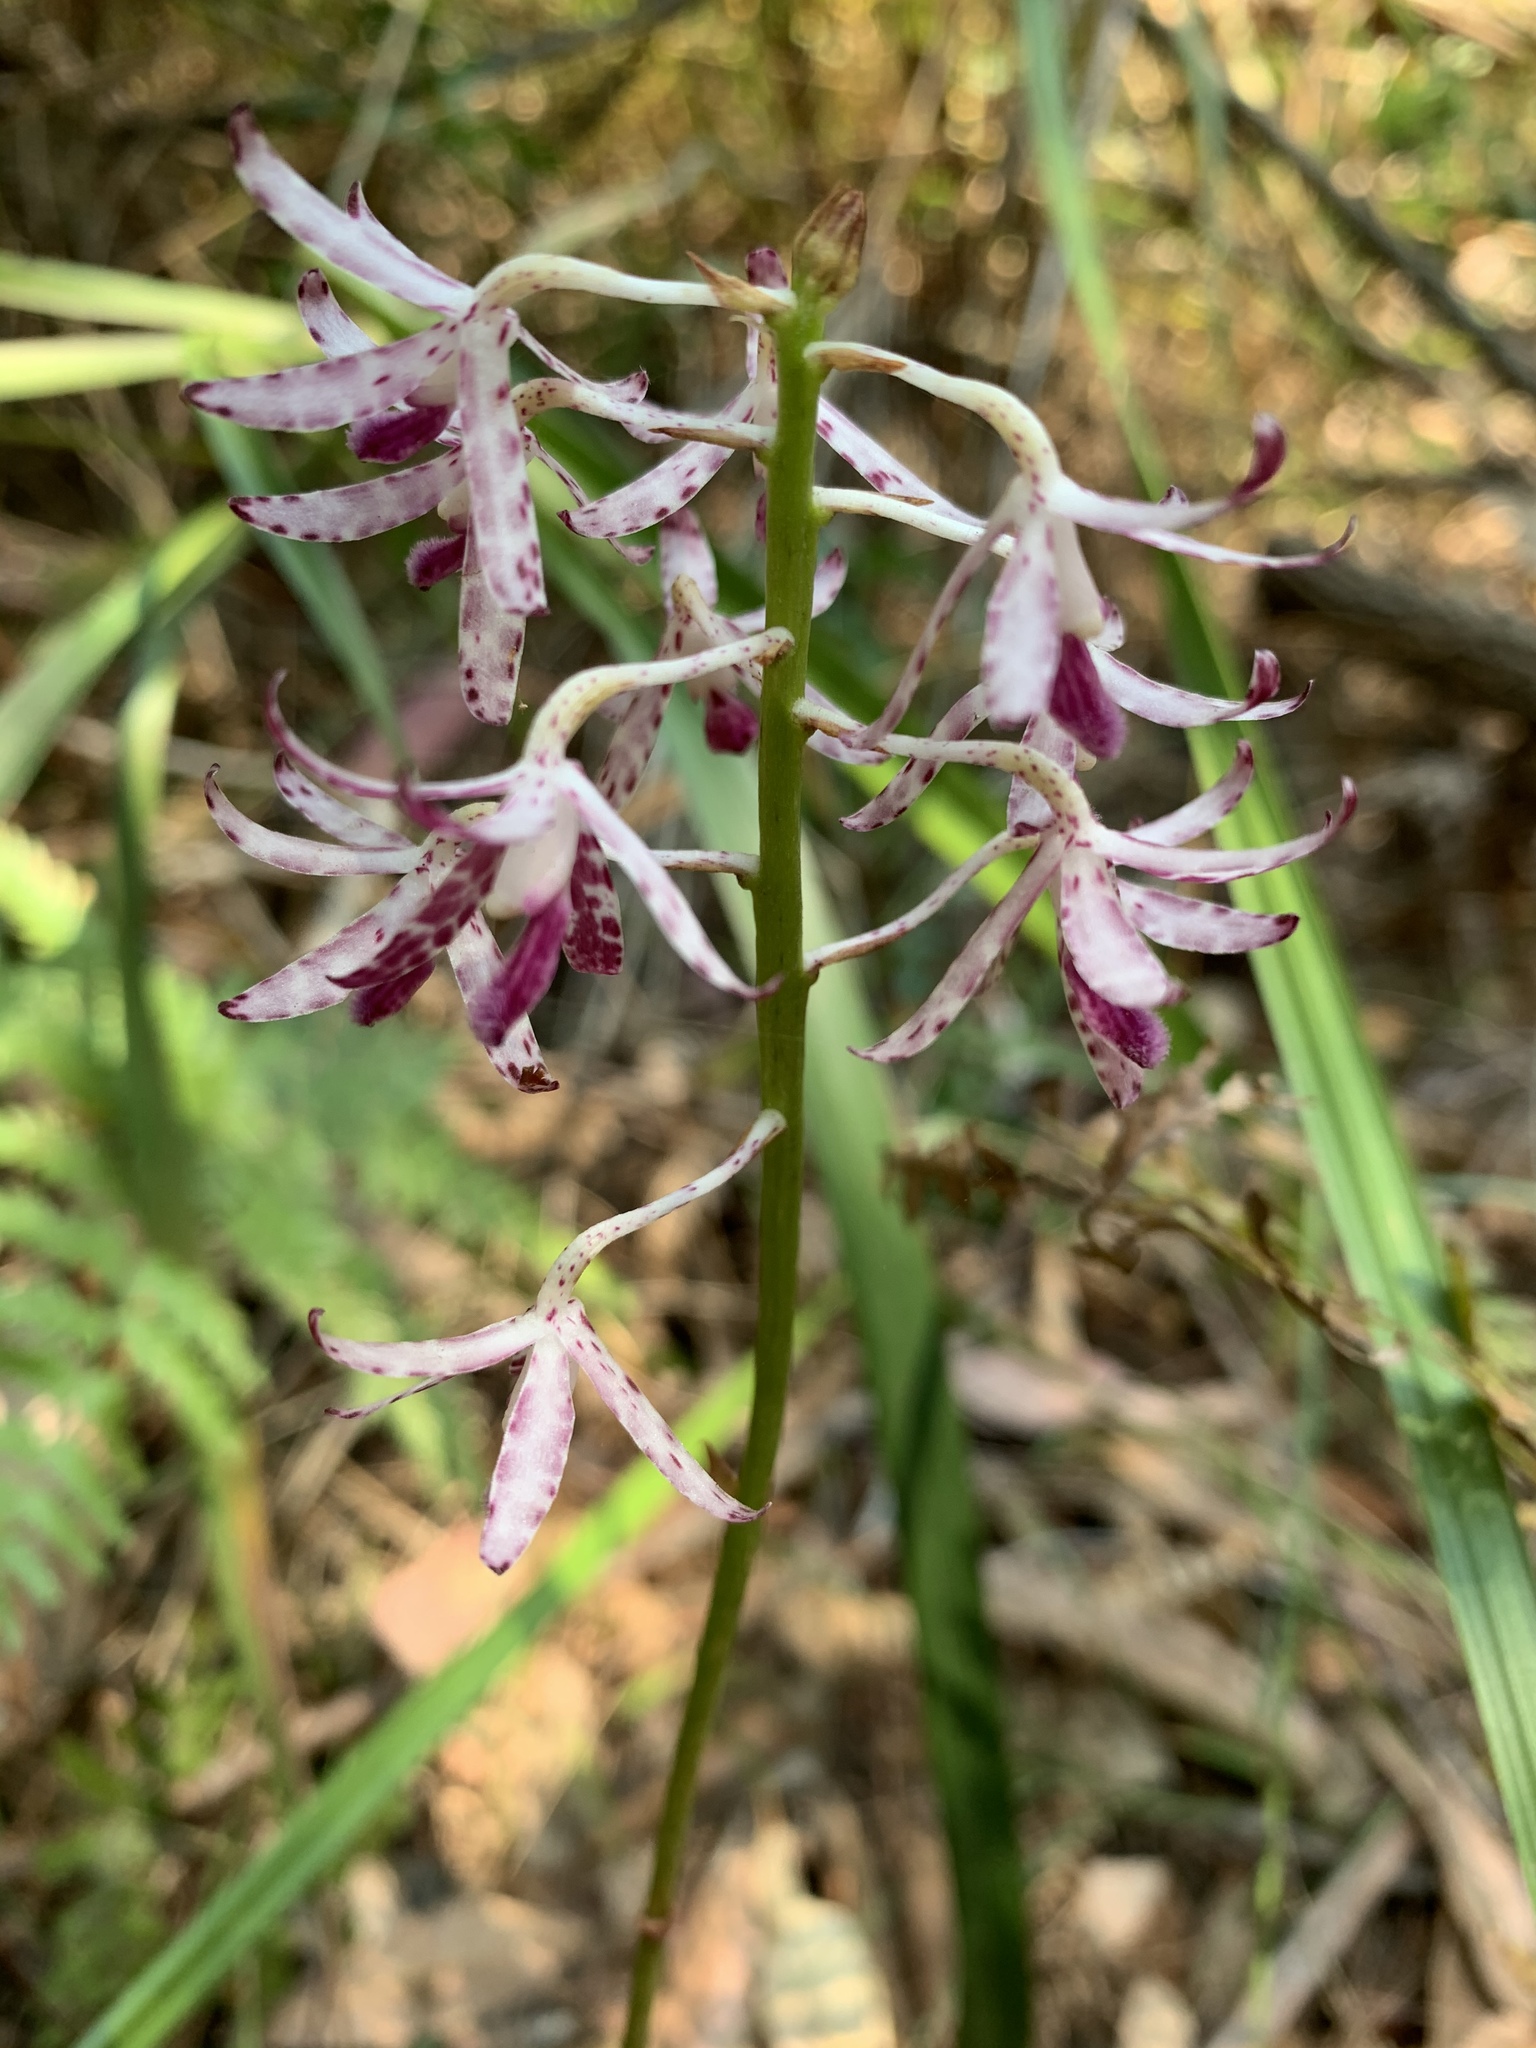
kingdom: Plantae
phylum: Tracheophyta
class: Liliopsida
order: Asparagales
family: Orchidaceae
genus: Dipodium
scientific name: Dipodium variegatum
